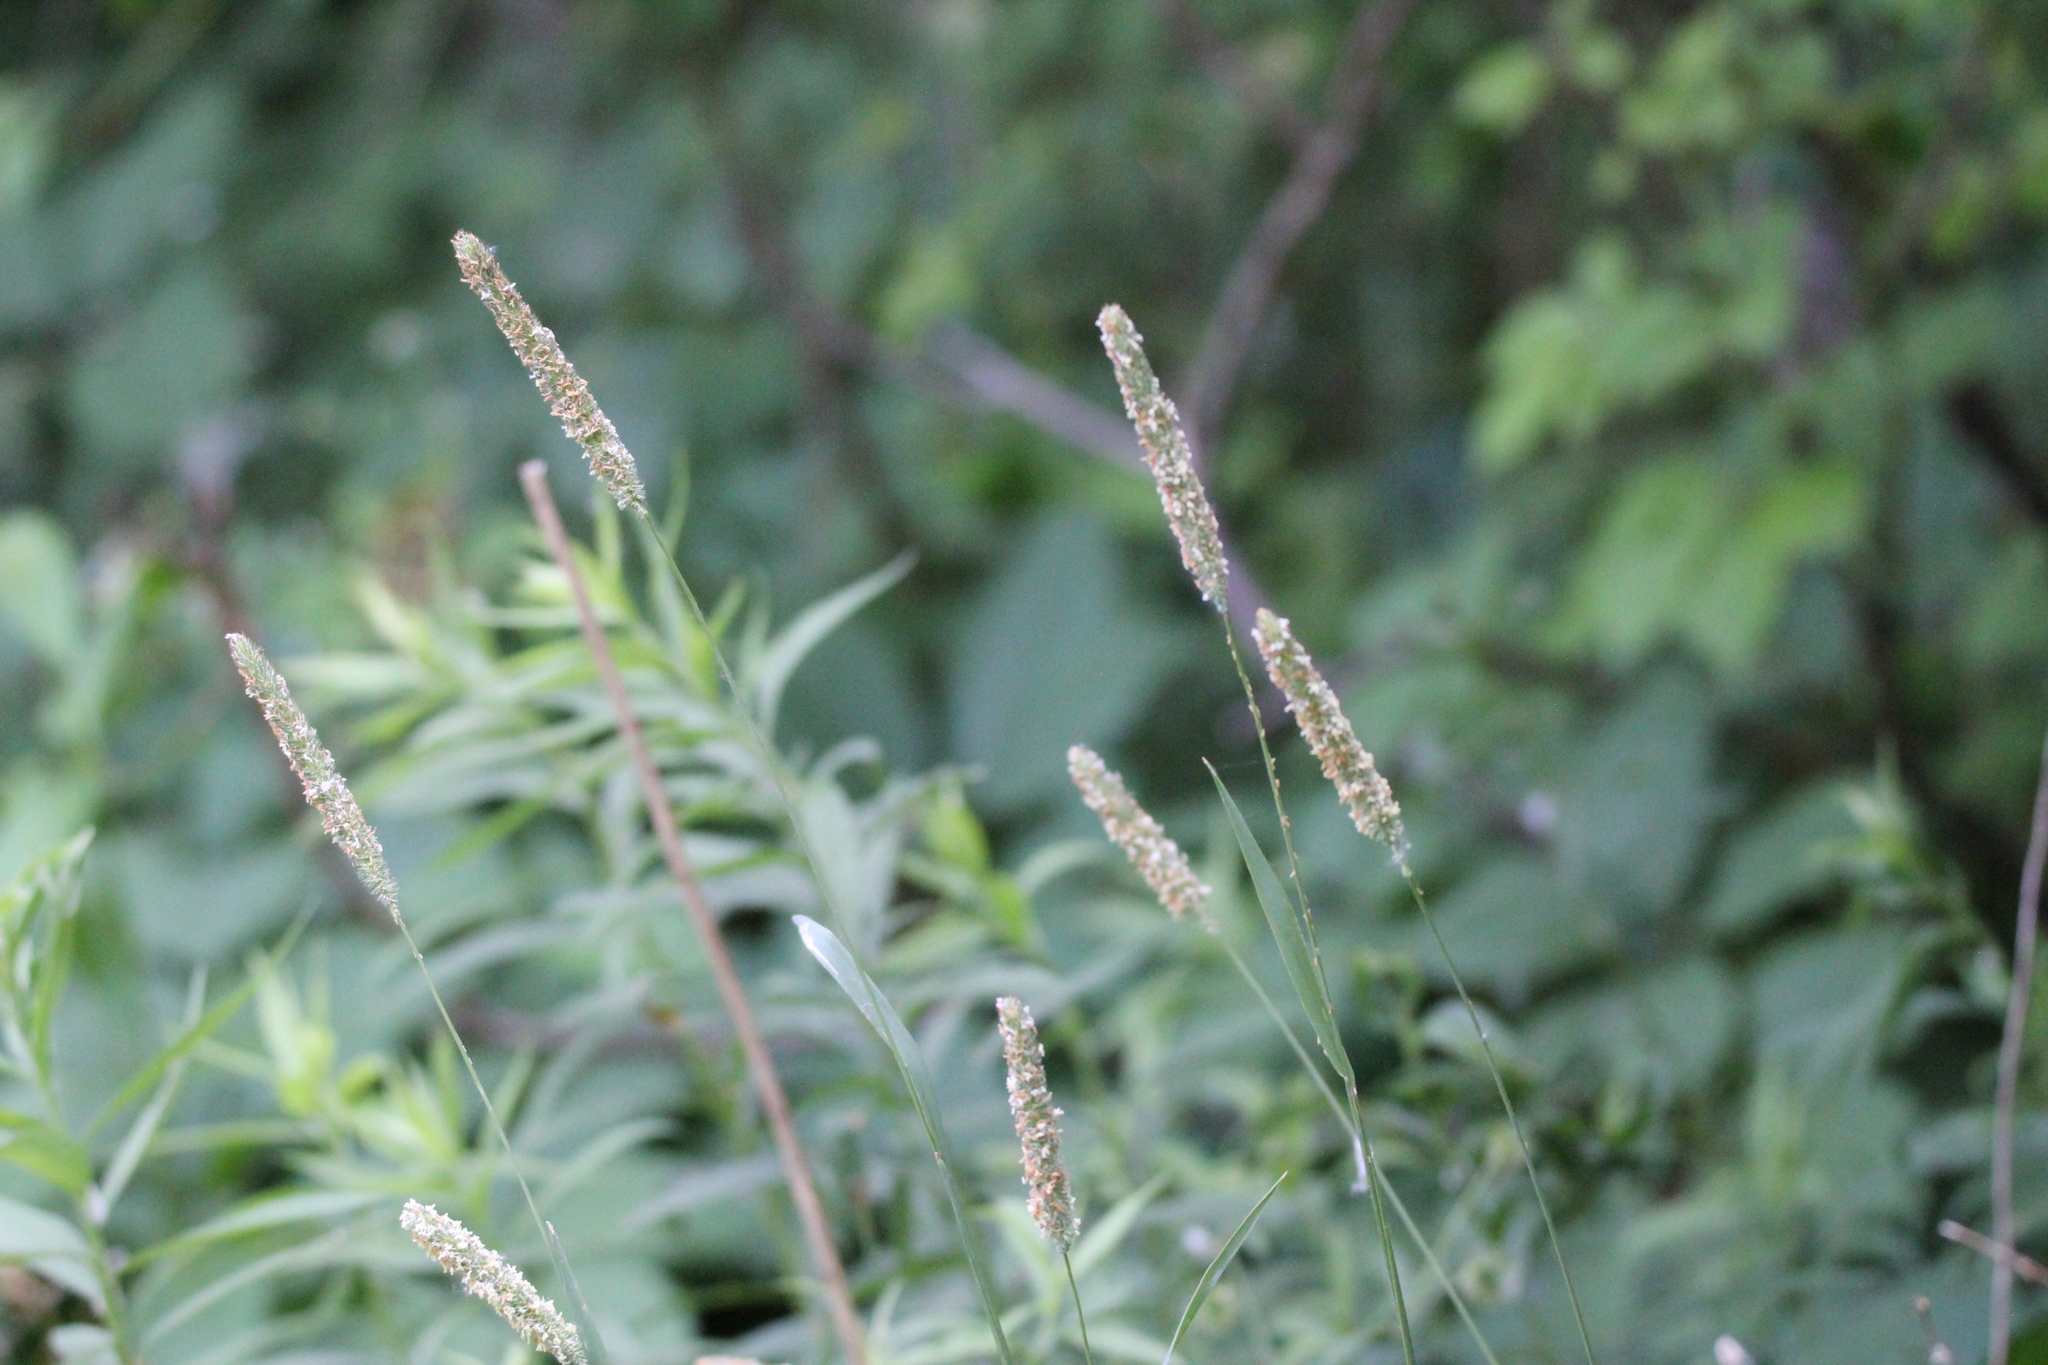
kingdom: Plantae
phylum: Tracheophyta
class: Liliopsida
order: Poales
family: Poaceae
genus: Phleum
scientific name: Phleum pratense
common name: Timothy grass
